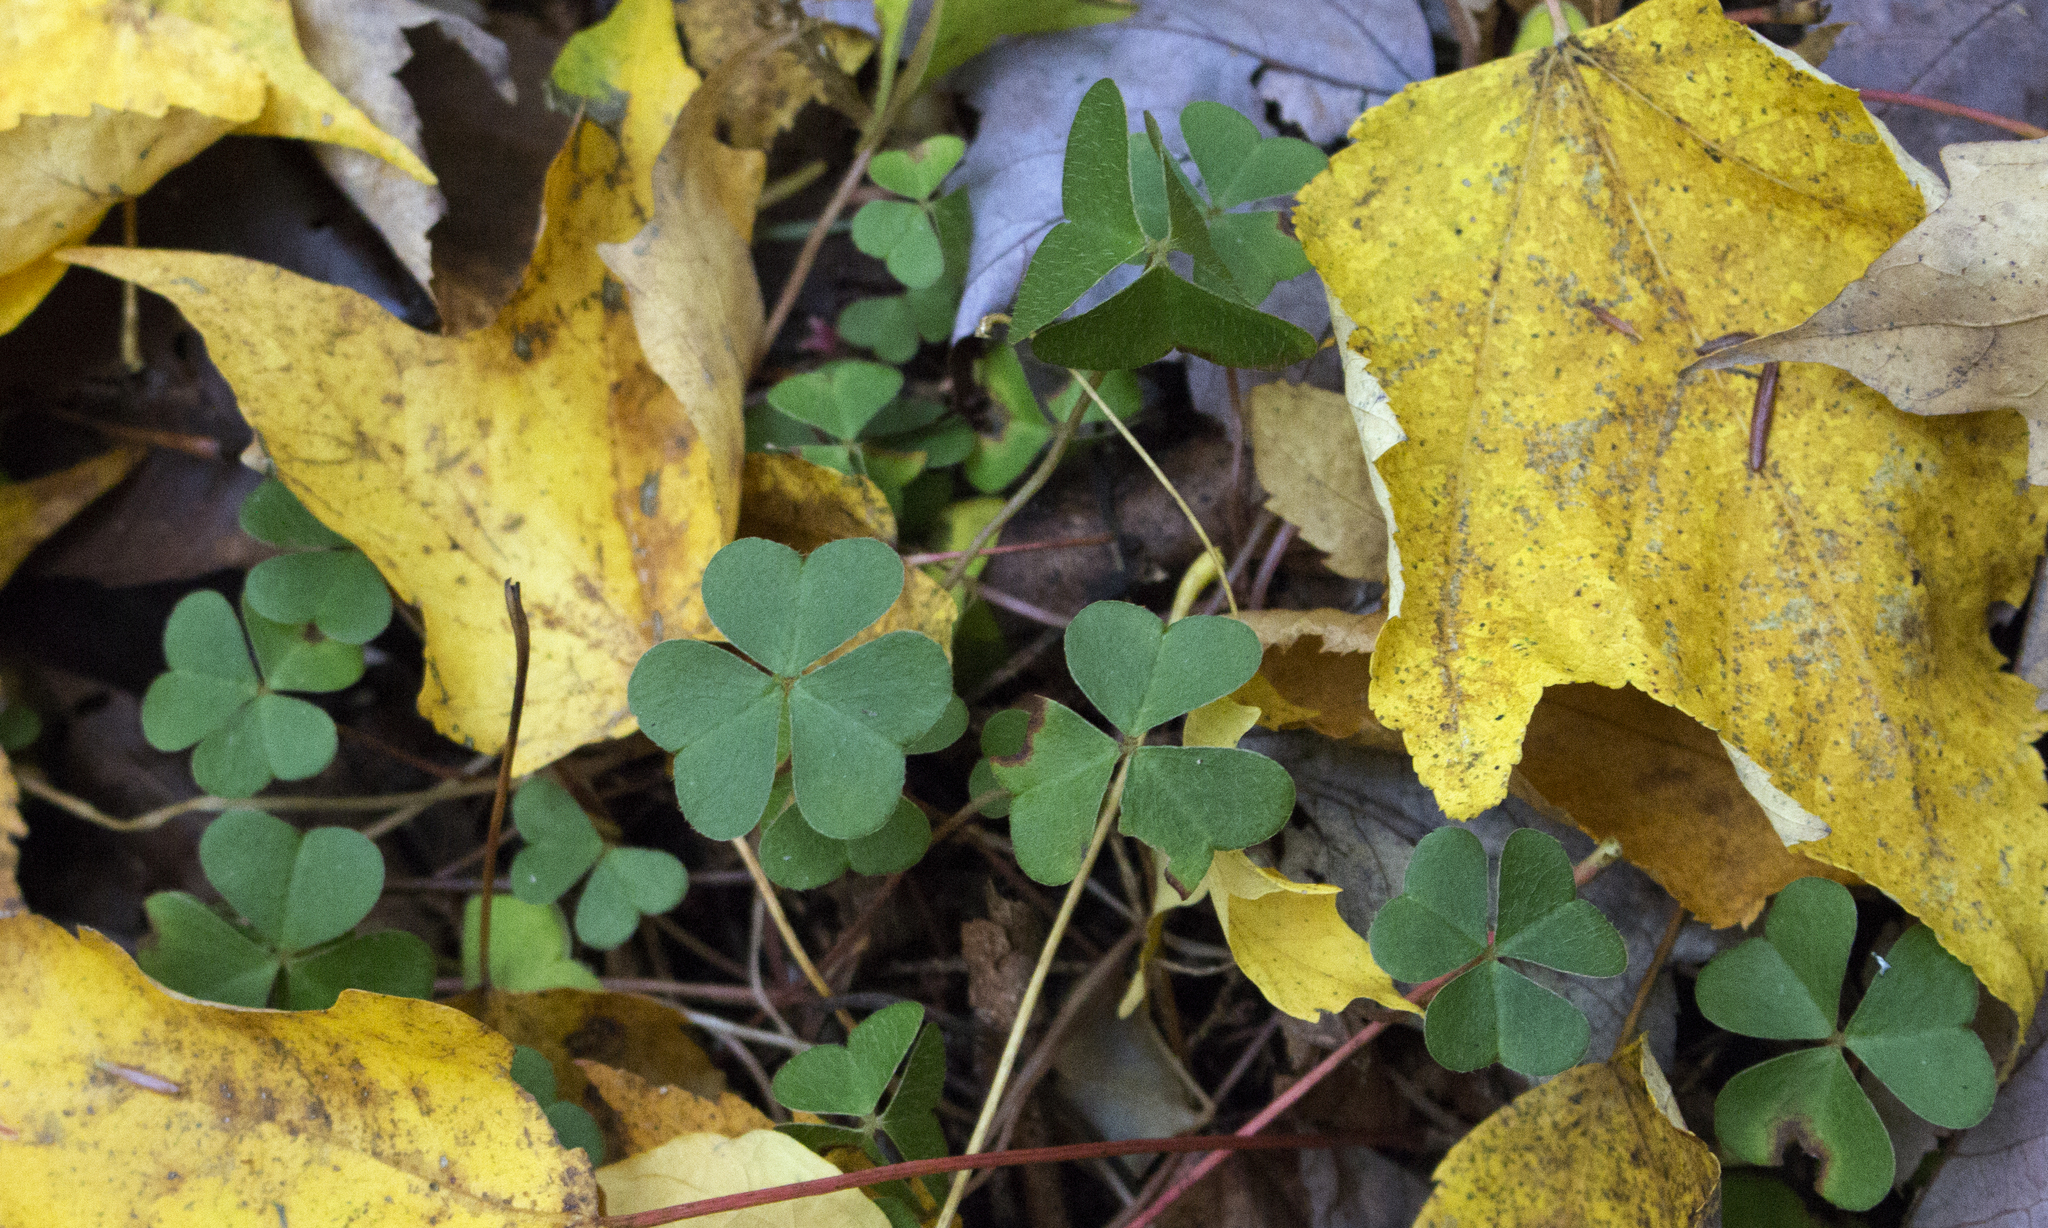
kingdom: Plantae
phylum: Tracheophyta
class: Magnoliopsida
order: Oxalidales
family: Oxalidaceae
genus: Oxalis
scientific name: Oxalis montana
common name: American wood-sorrel
